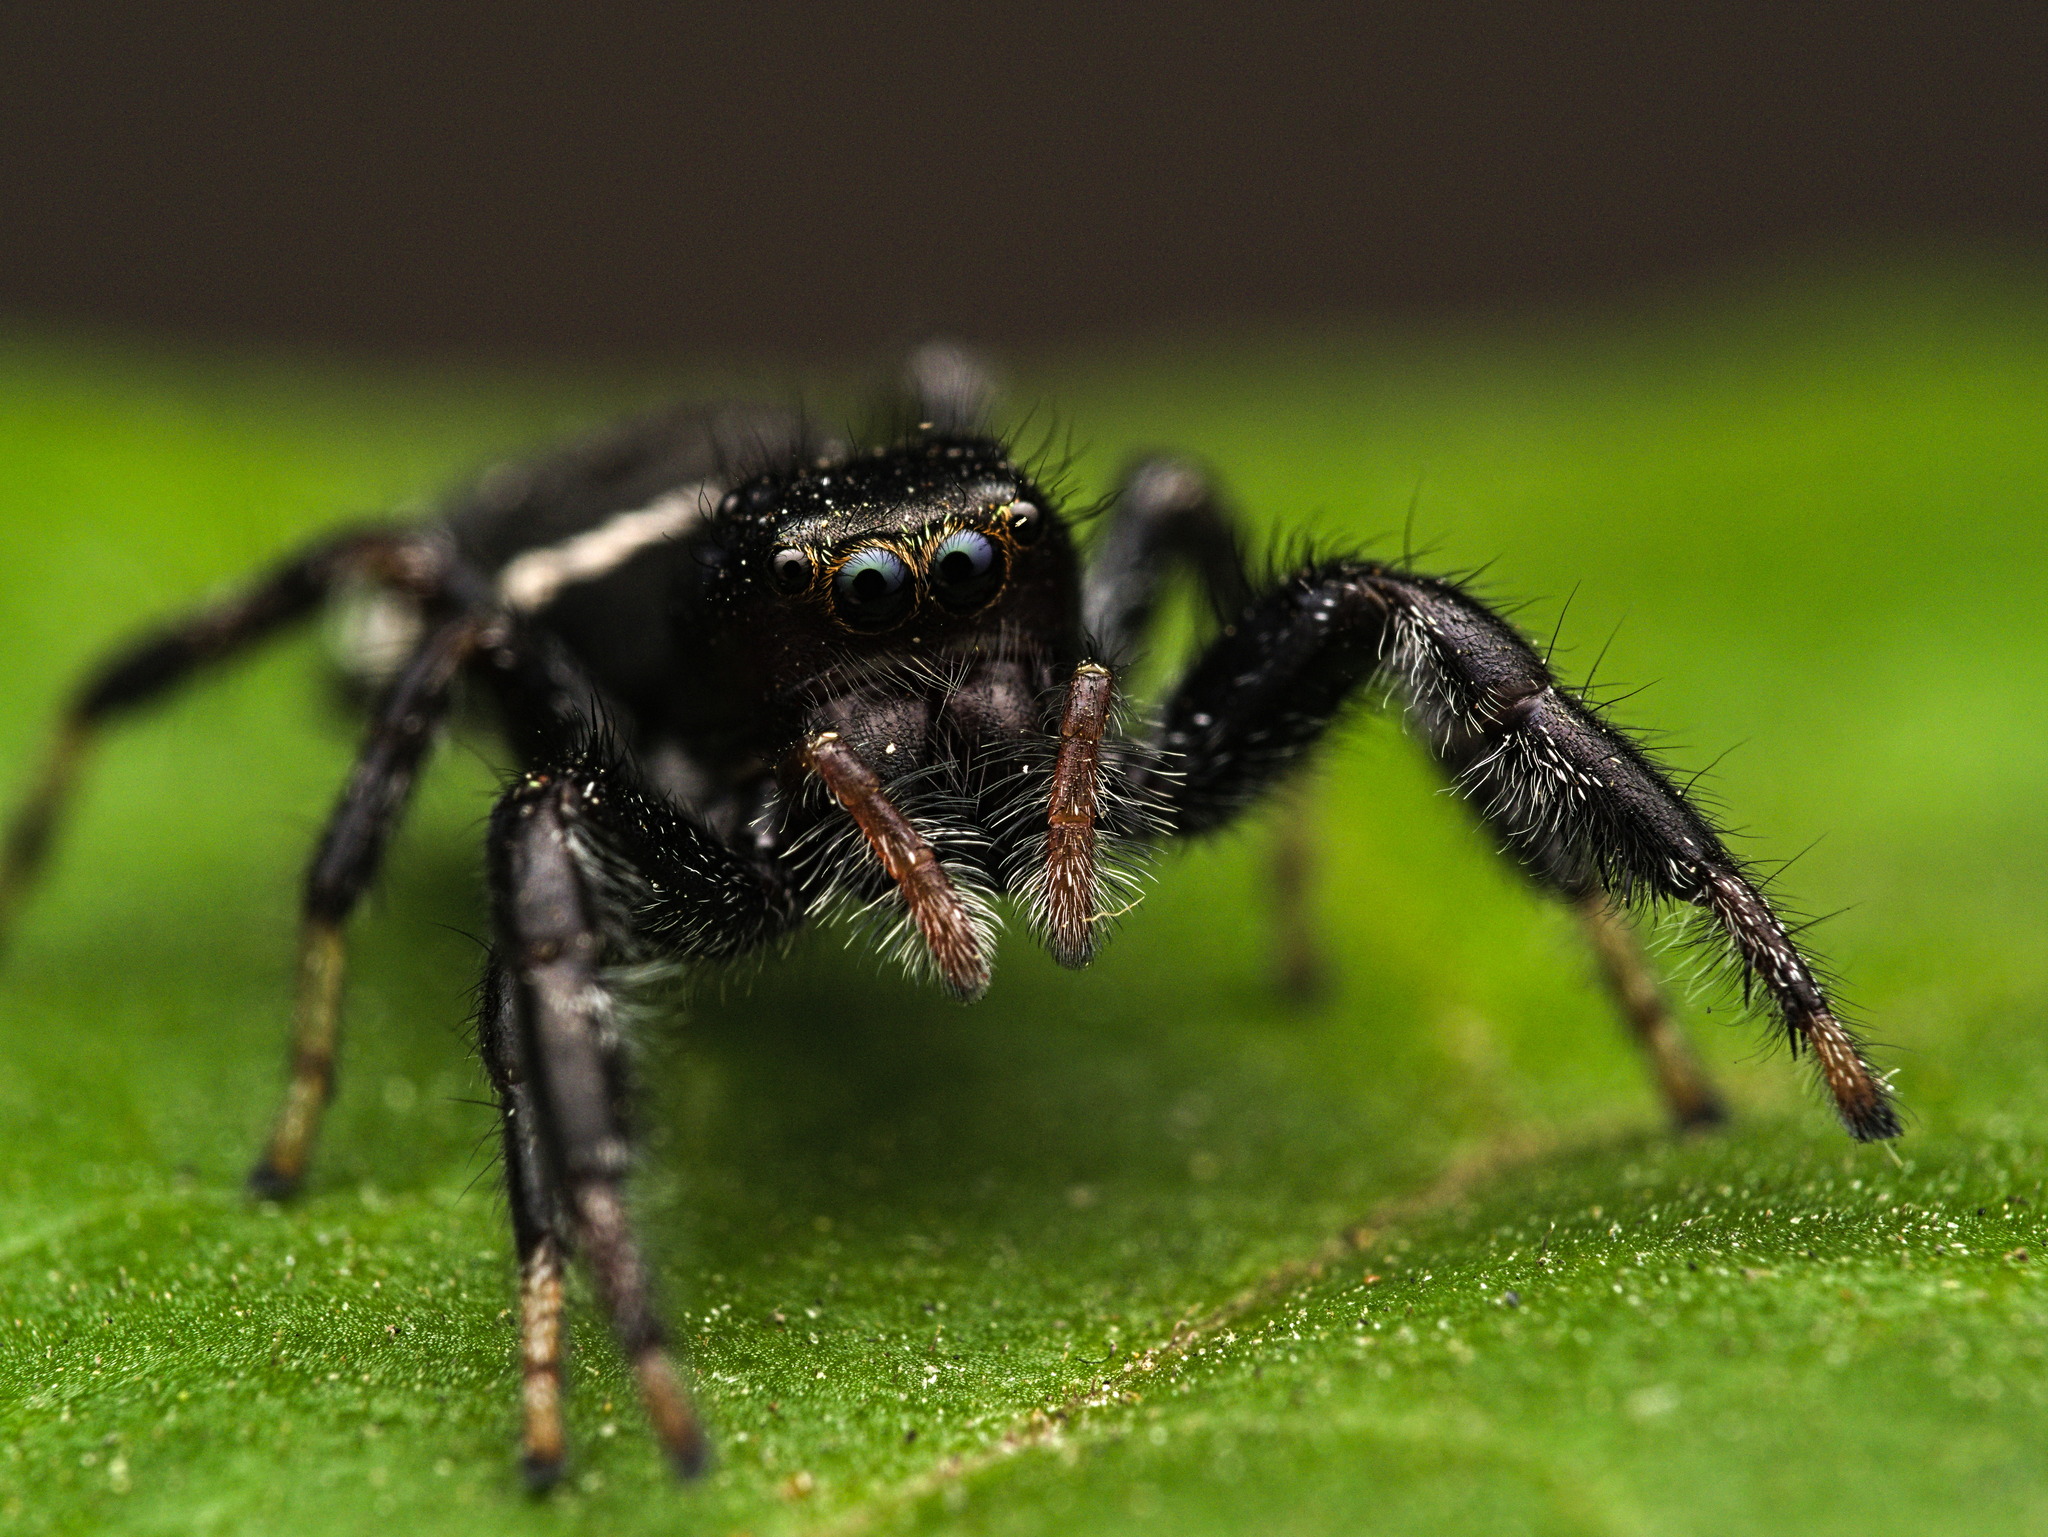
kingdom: Animalia
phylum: Arthropoda
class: Arachnida
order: Araneae
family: Salticidae
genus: Paraphidippus
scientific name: Paraphidippus aurantius
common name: Jumping spiders
